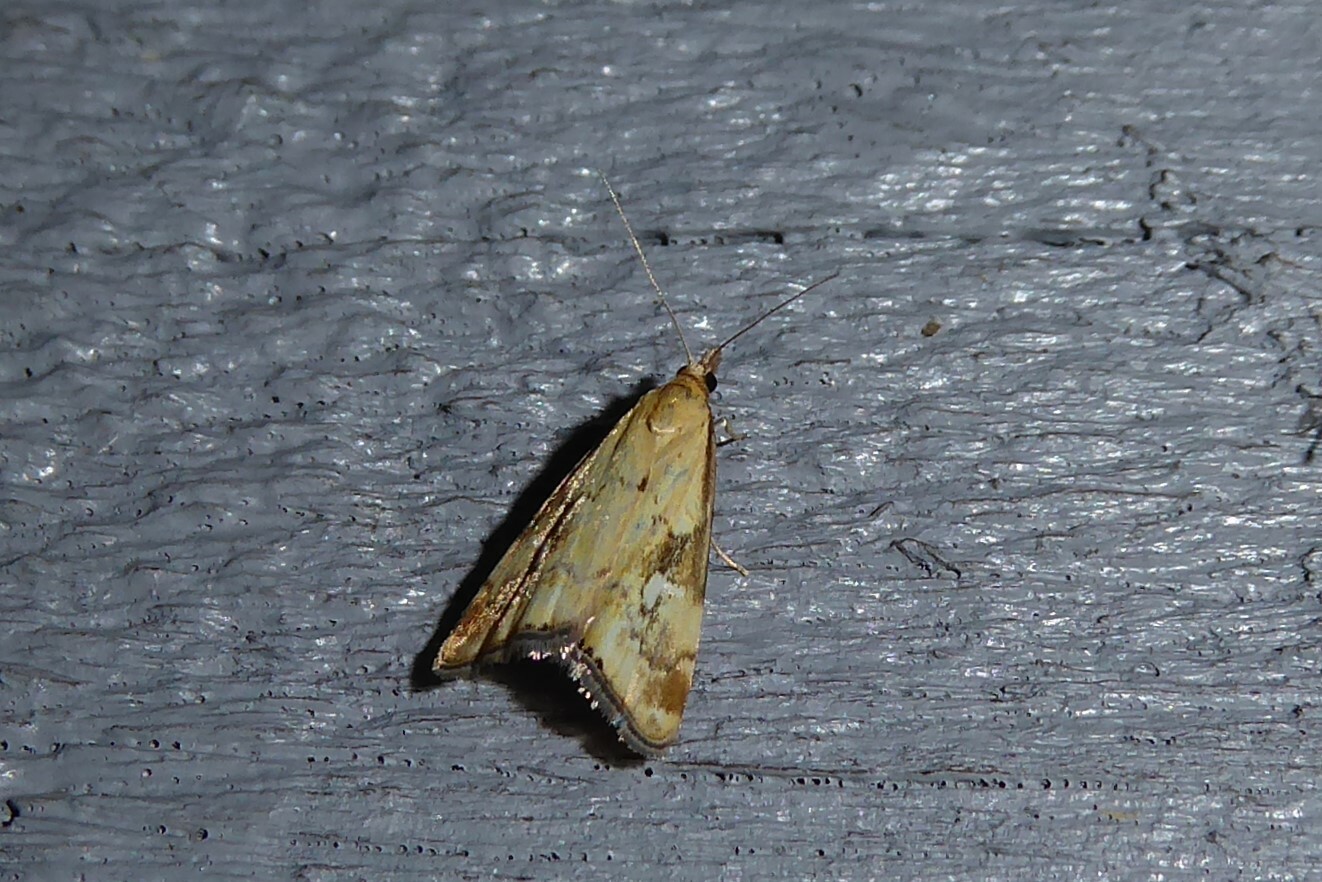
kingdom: Animalia
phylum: Arthropoda
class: Insecta
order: Lepidoptera
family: Crambidae
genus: Glaucocharis
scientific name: Glaucocharis lepidella
